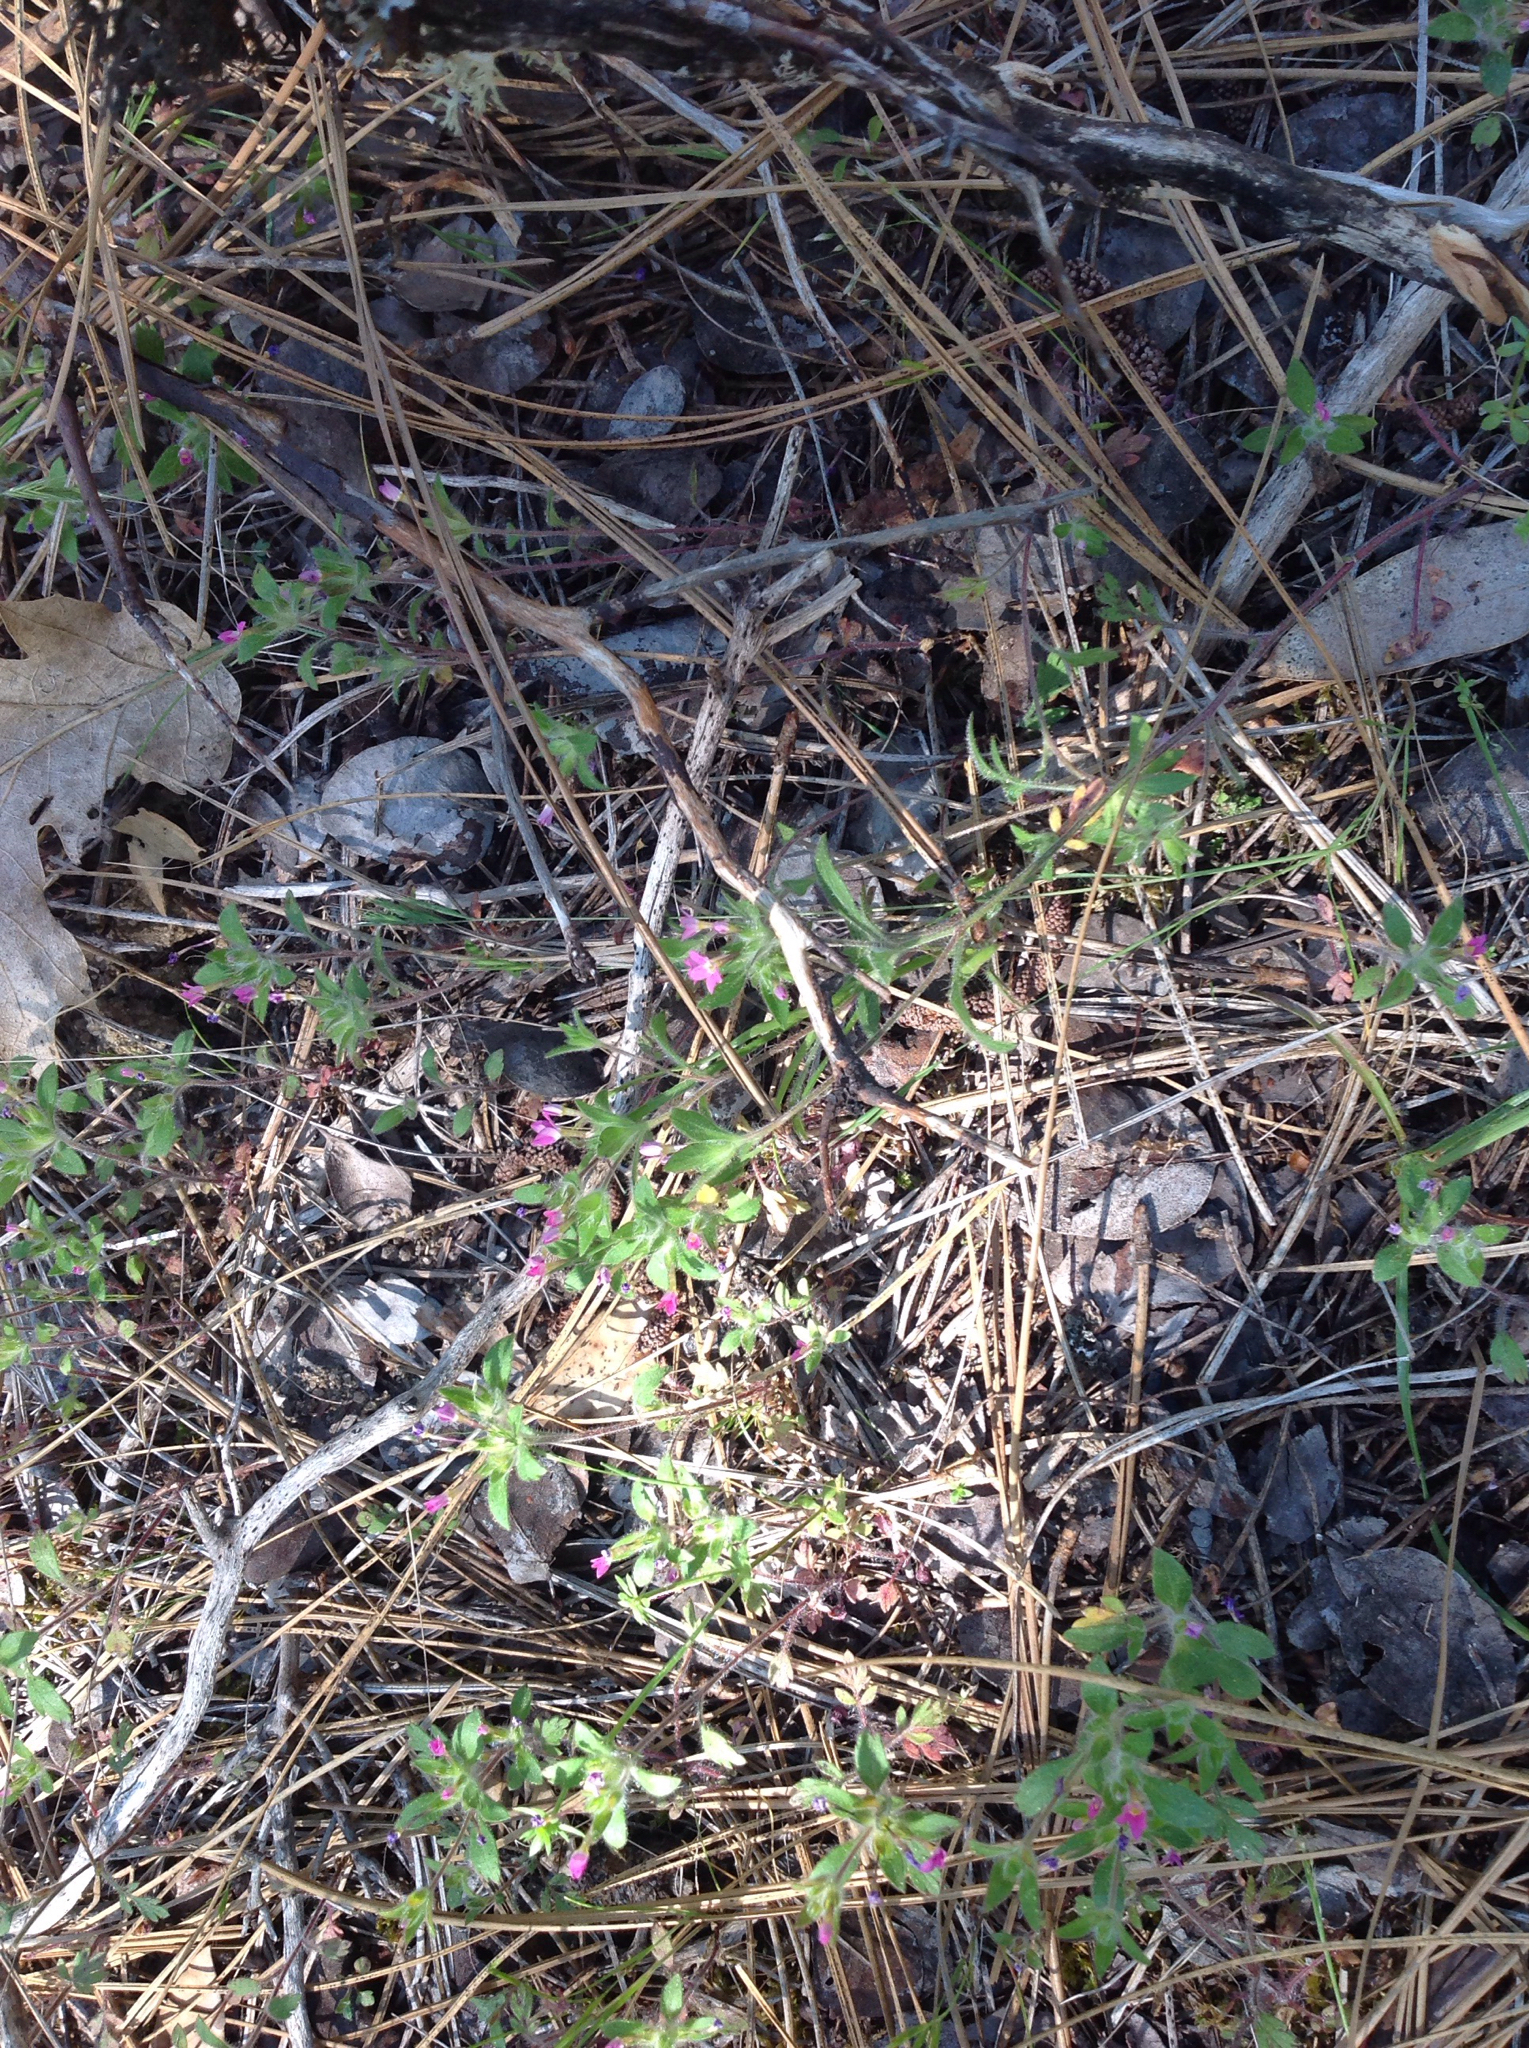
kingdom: Plantae
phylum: Tracheophyta
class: Magnoliopsida
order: Ericales
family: Polemoniaceae
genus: Collomia
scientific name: Collomia heterophylla
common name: Variable-leaved collomia
